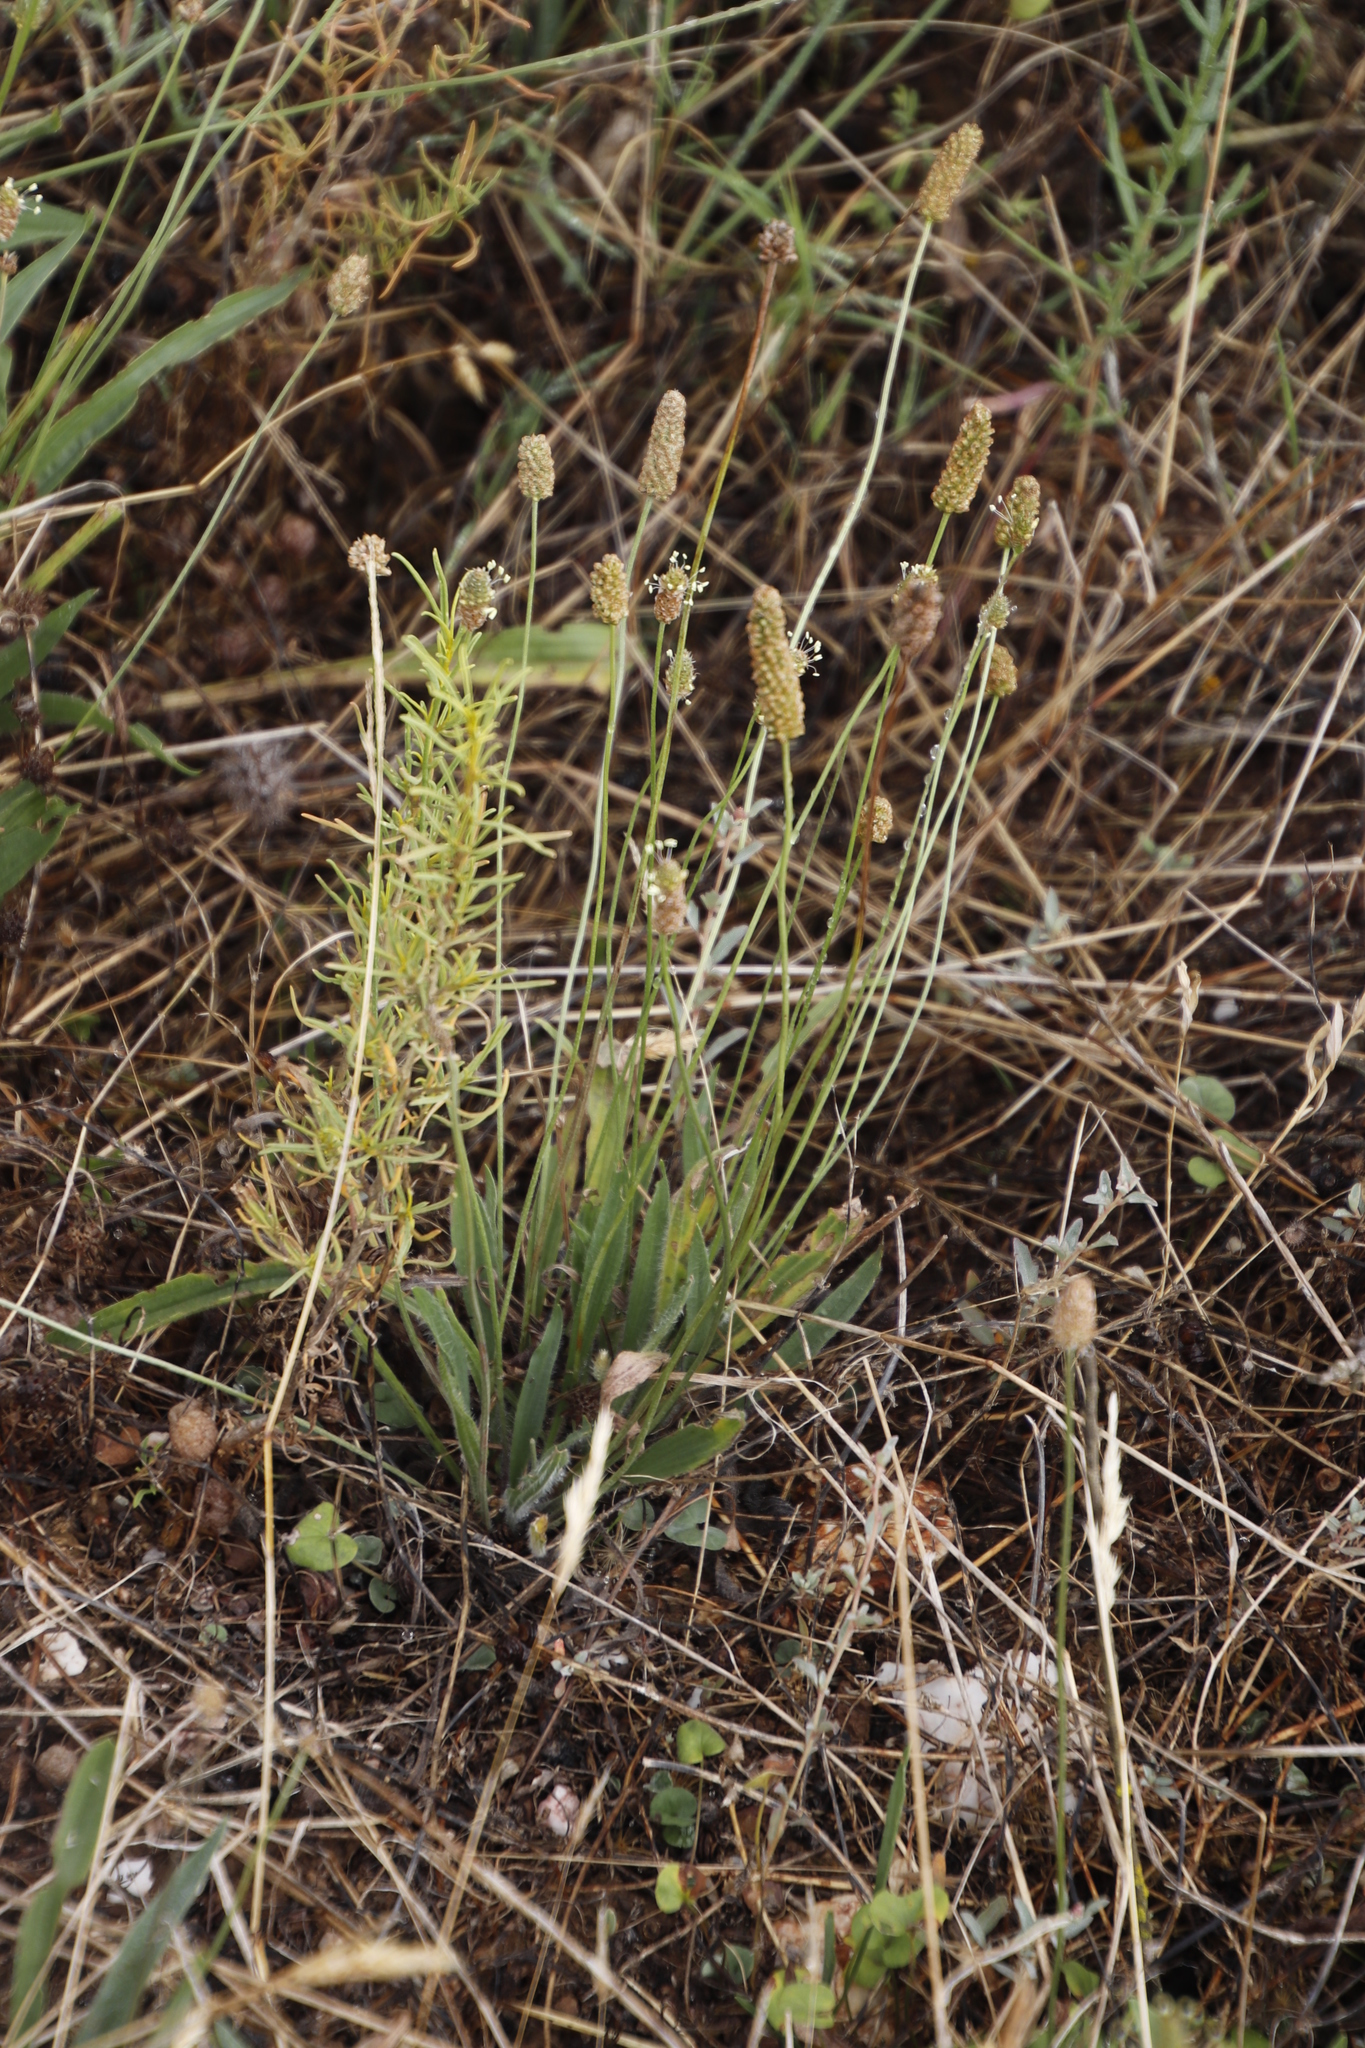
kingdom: Plantae
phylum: Tracheophyta
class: Magnoliopsida
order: Lamiales
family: Plantaginaceae
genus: Plantago
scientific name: Plantago lanceolata
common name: Ribwort plantain
